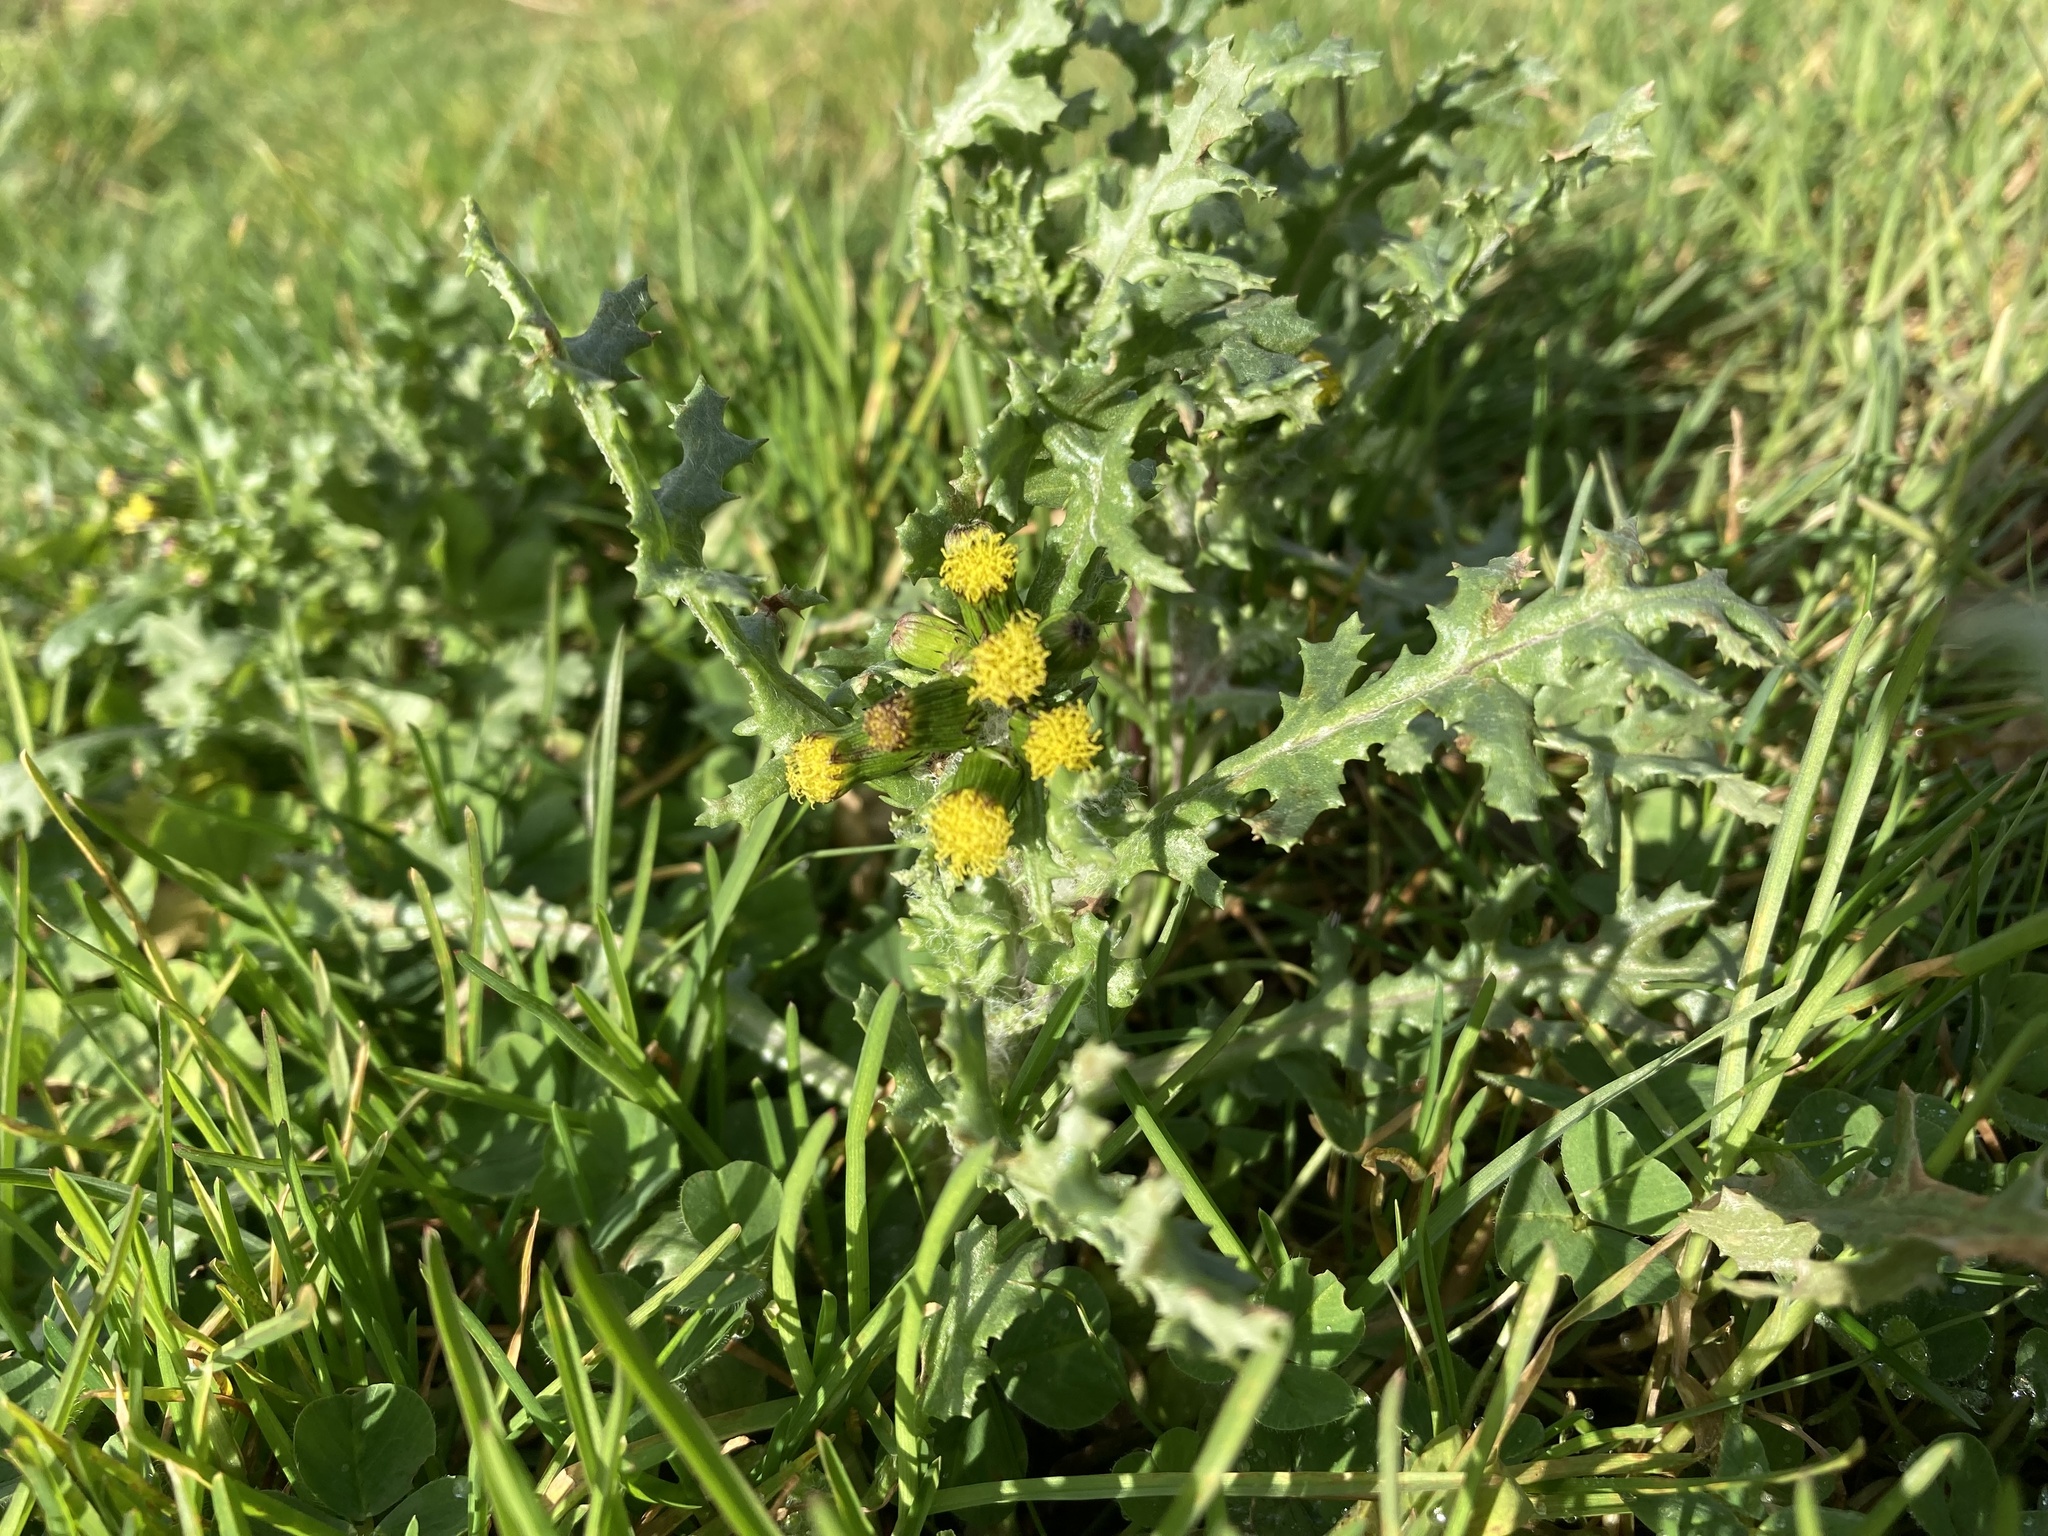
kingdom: Plantae
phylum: Tracheophyta
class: Magnoliopsida
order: Asterales
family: Asteraceae
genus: Senecio
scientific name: Senecio vulgaris
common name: Old-man-in-the-spring
